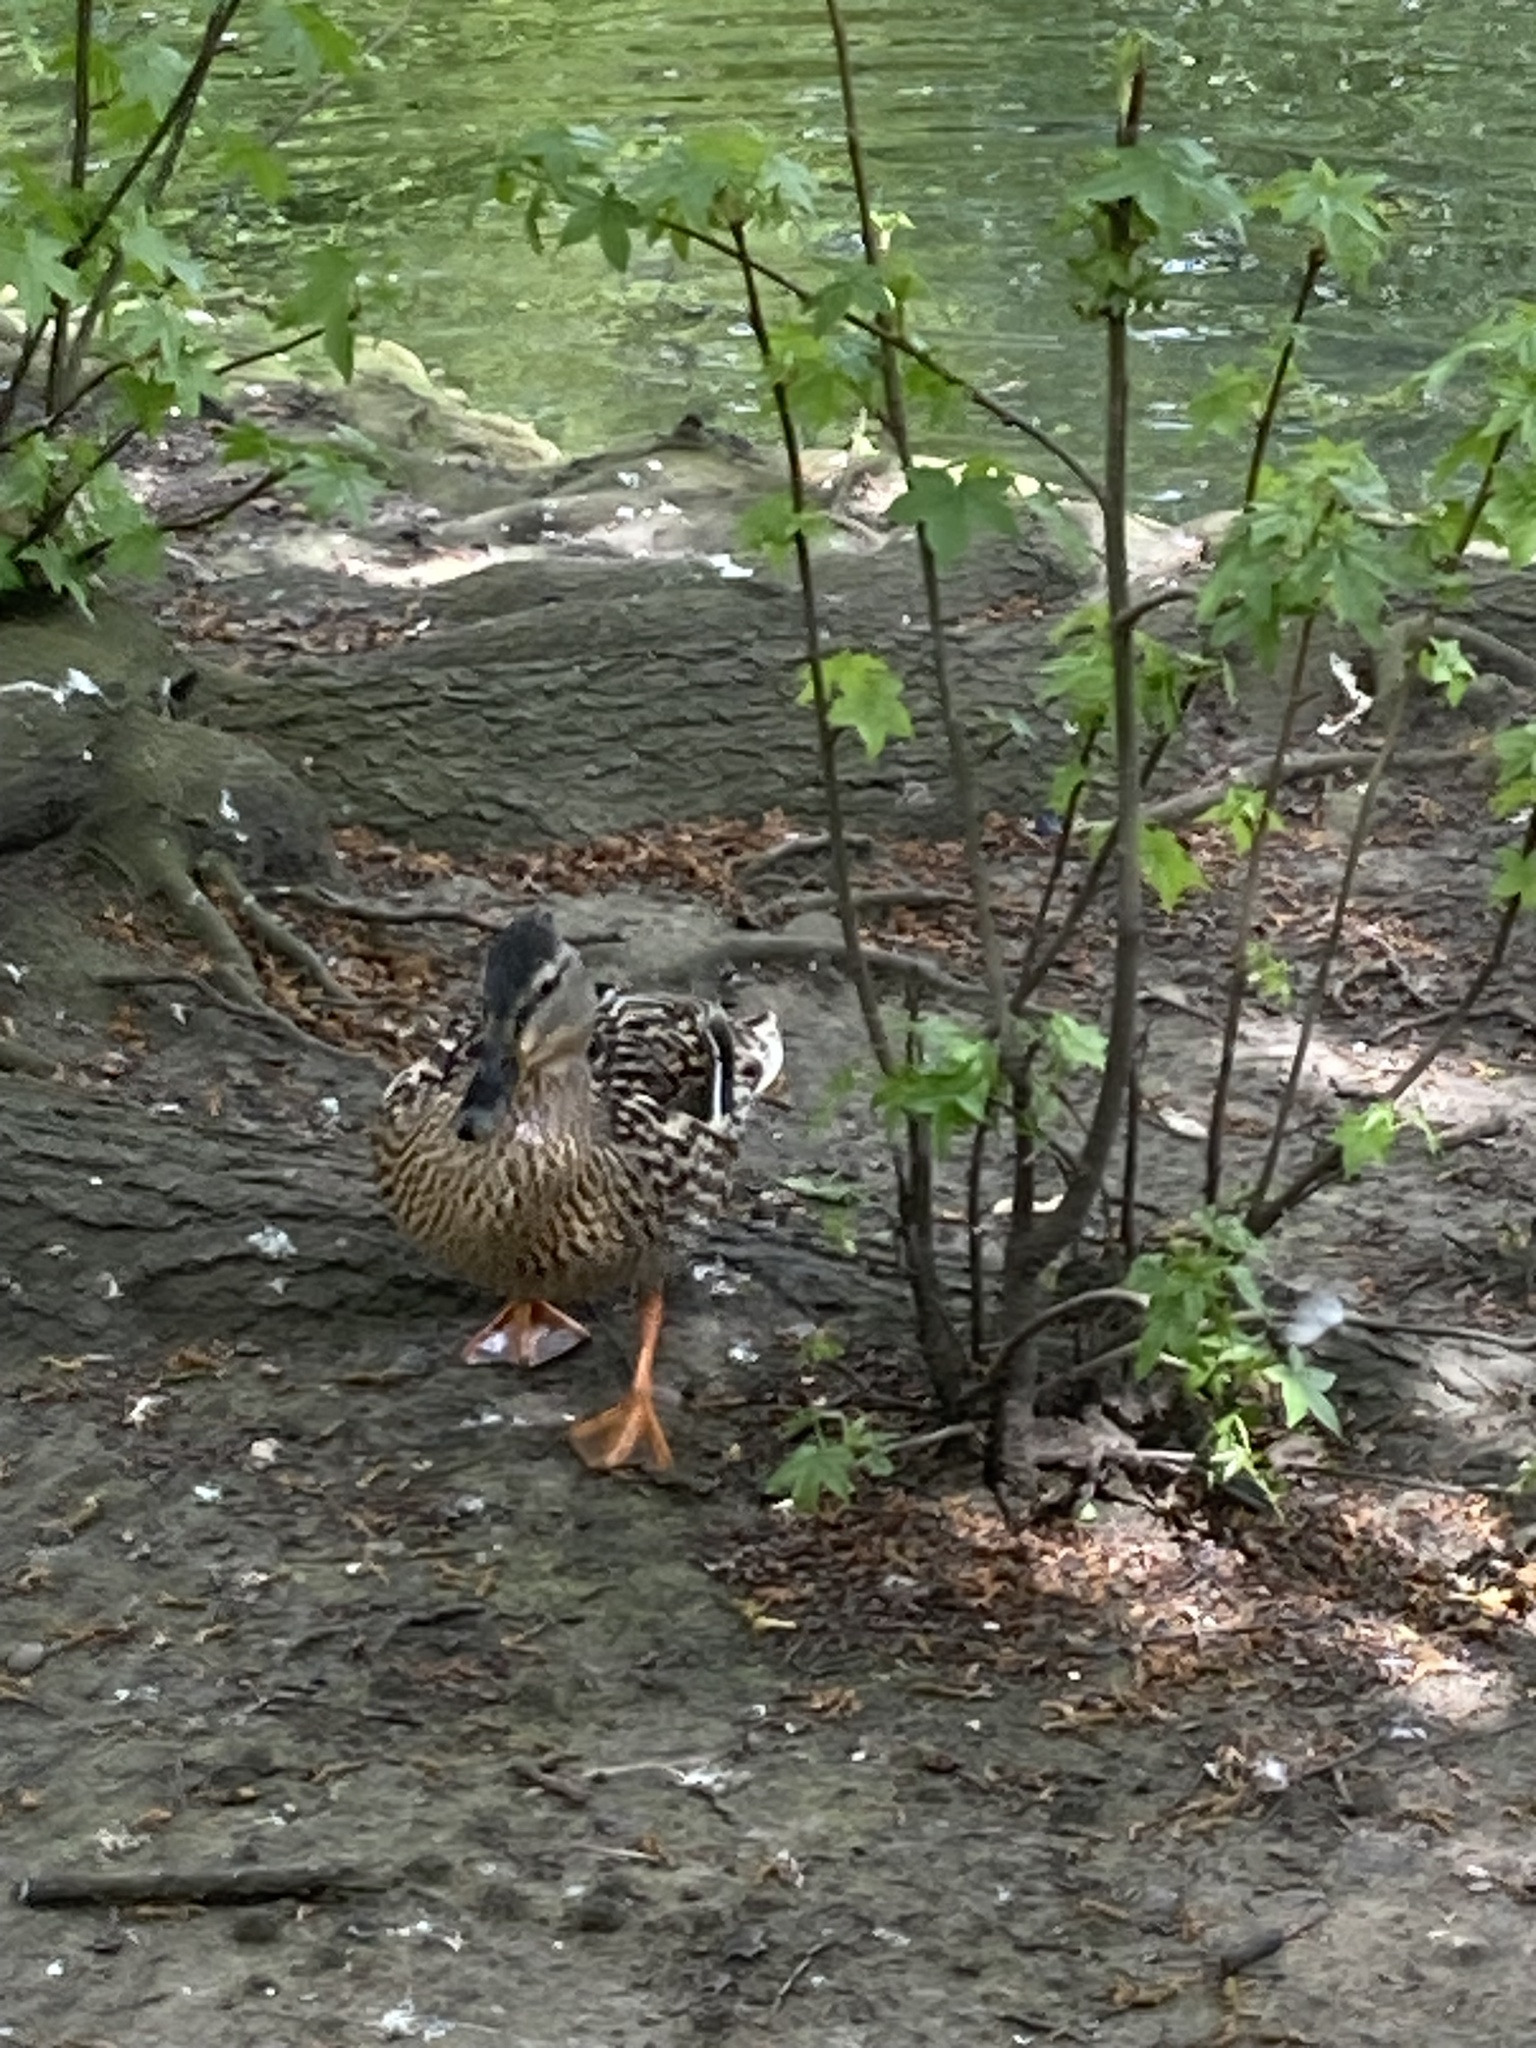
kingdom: Animalia
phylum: Chordata
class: Aves
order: Anseriformes
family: Anatidae
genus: Anas
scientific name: Anas platyrhynchos
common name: Mallard
